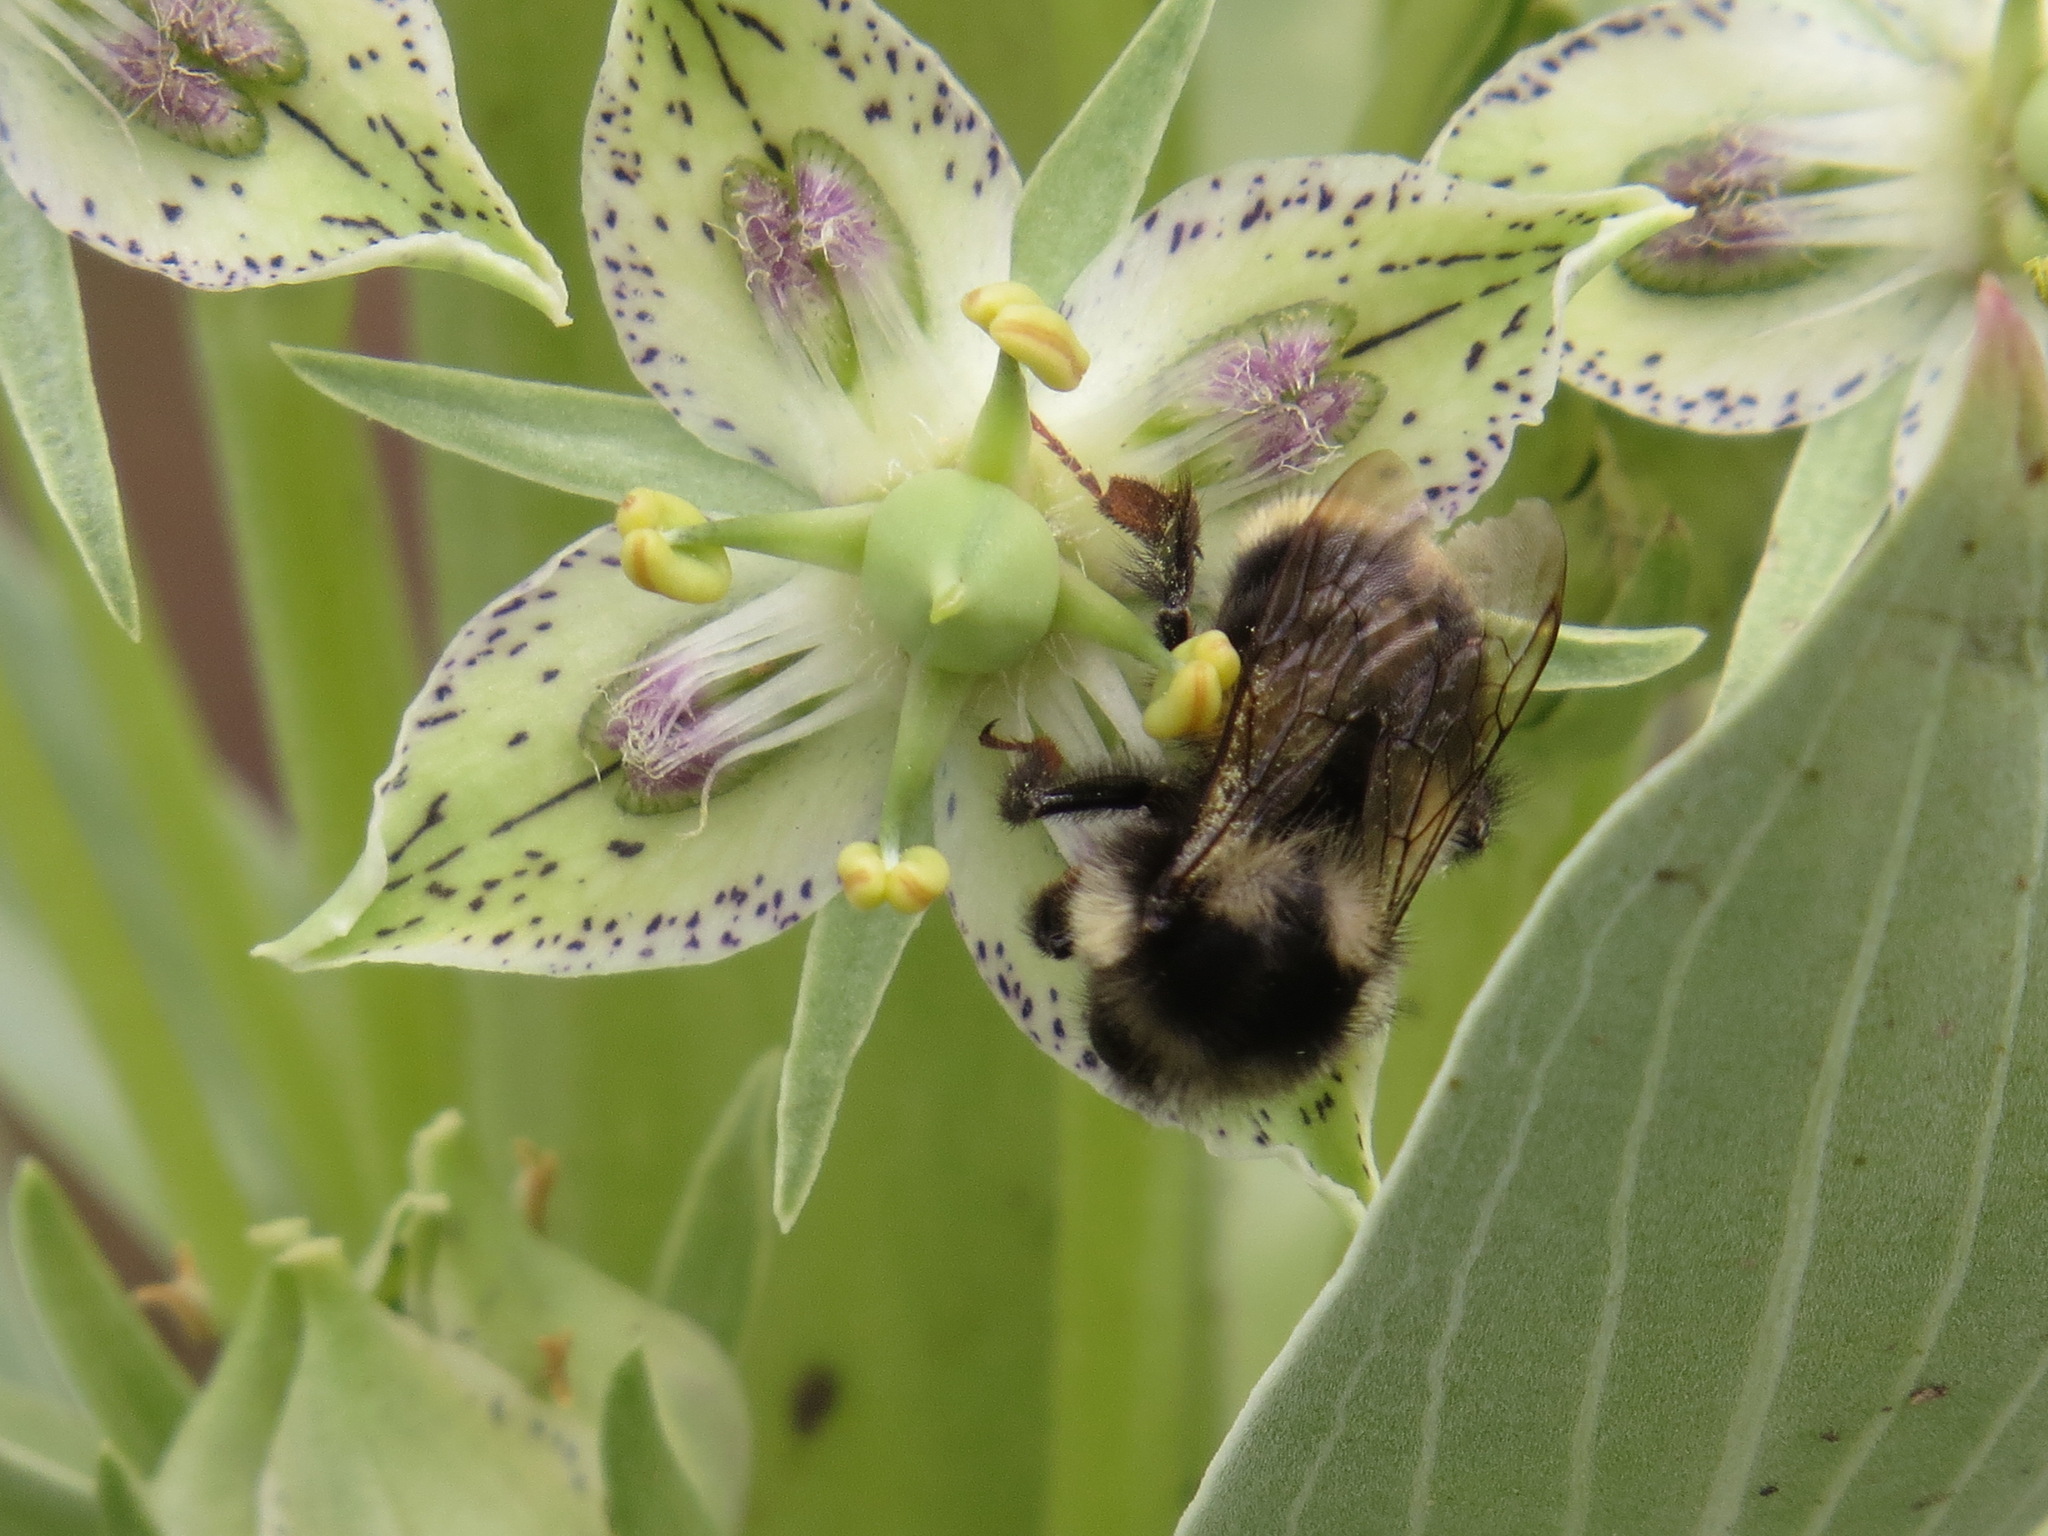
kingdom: Animalia
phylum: Arthropoda
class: Insecta
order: Hymenoptera
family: Apidae
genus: Bombus
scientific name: Bombus vancouverensis
